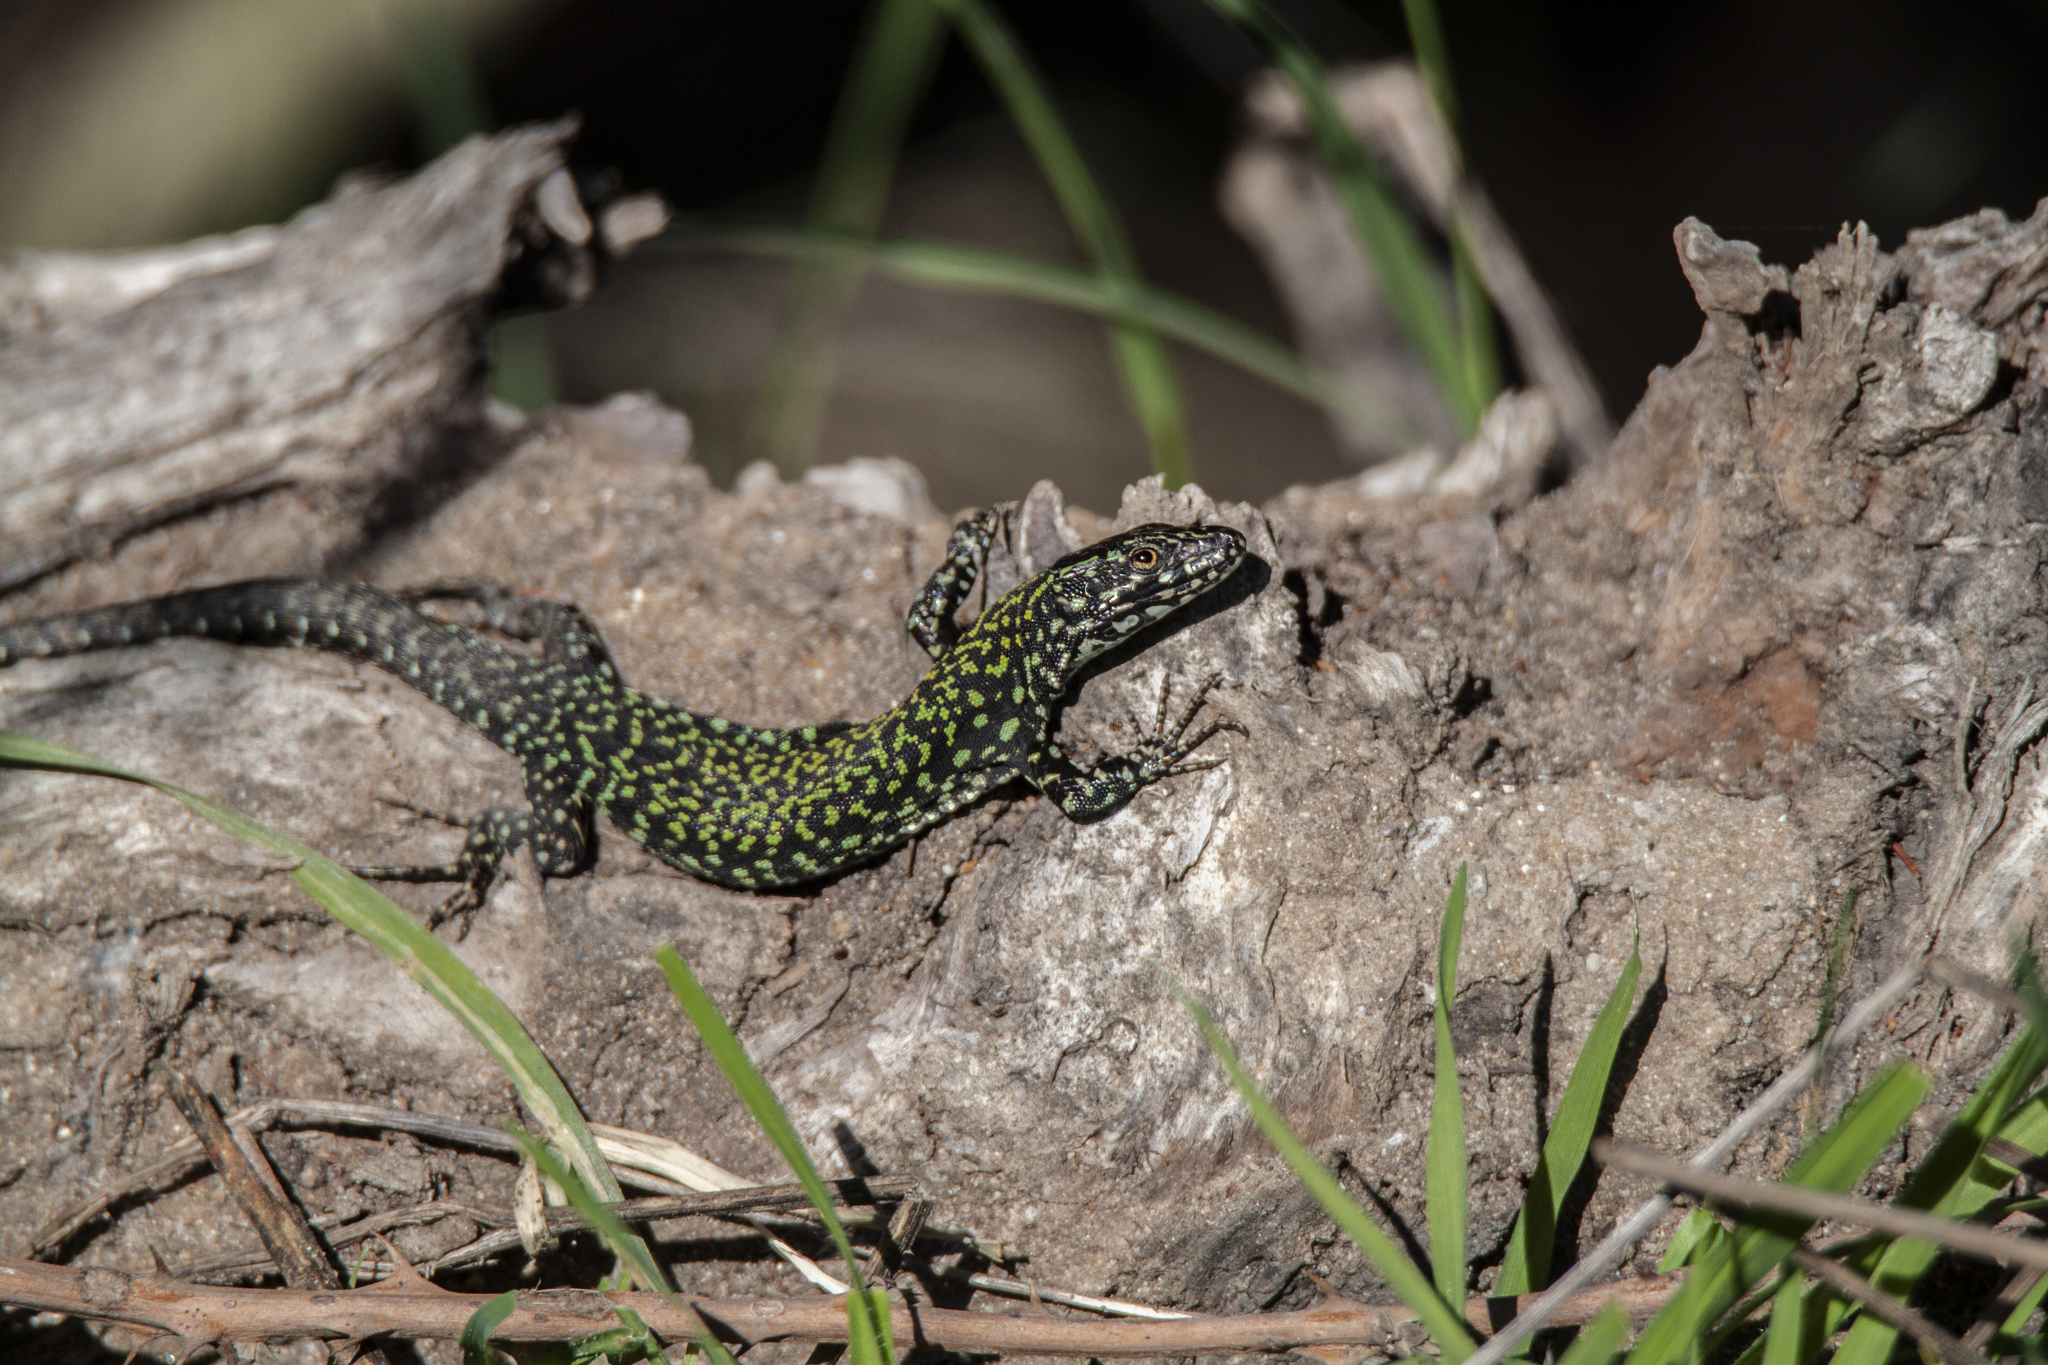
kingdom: Animalia
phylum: Chordata
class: Squamata
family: Lacertidae
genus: Podarcis
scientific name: Podarcis muralis
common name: Common wall lizard
